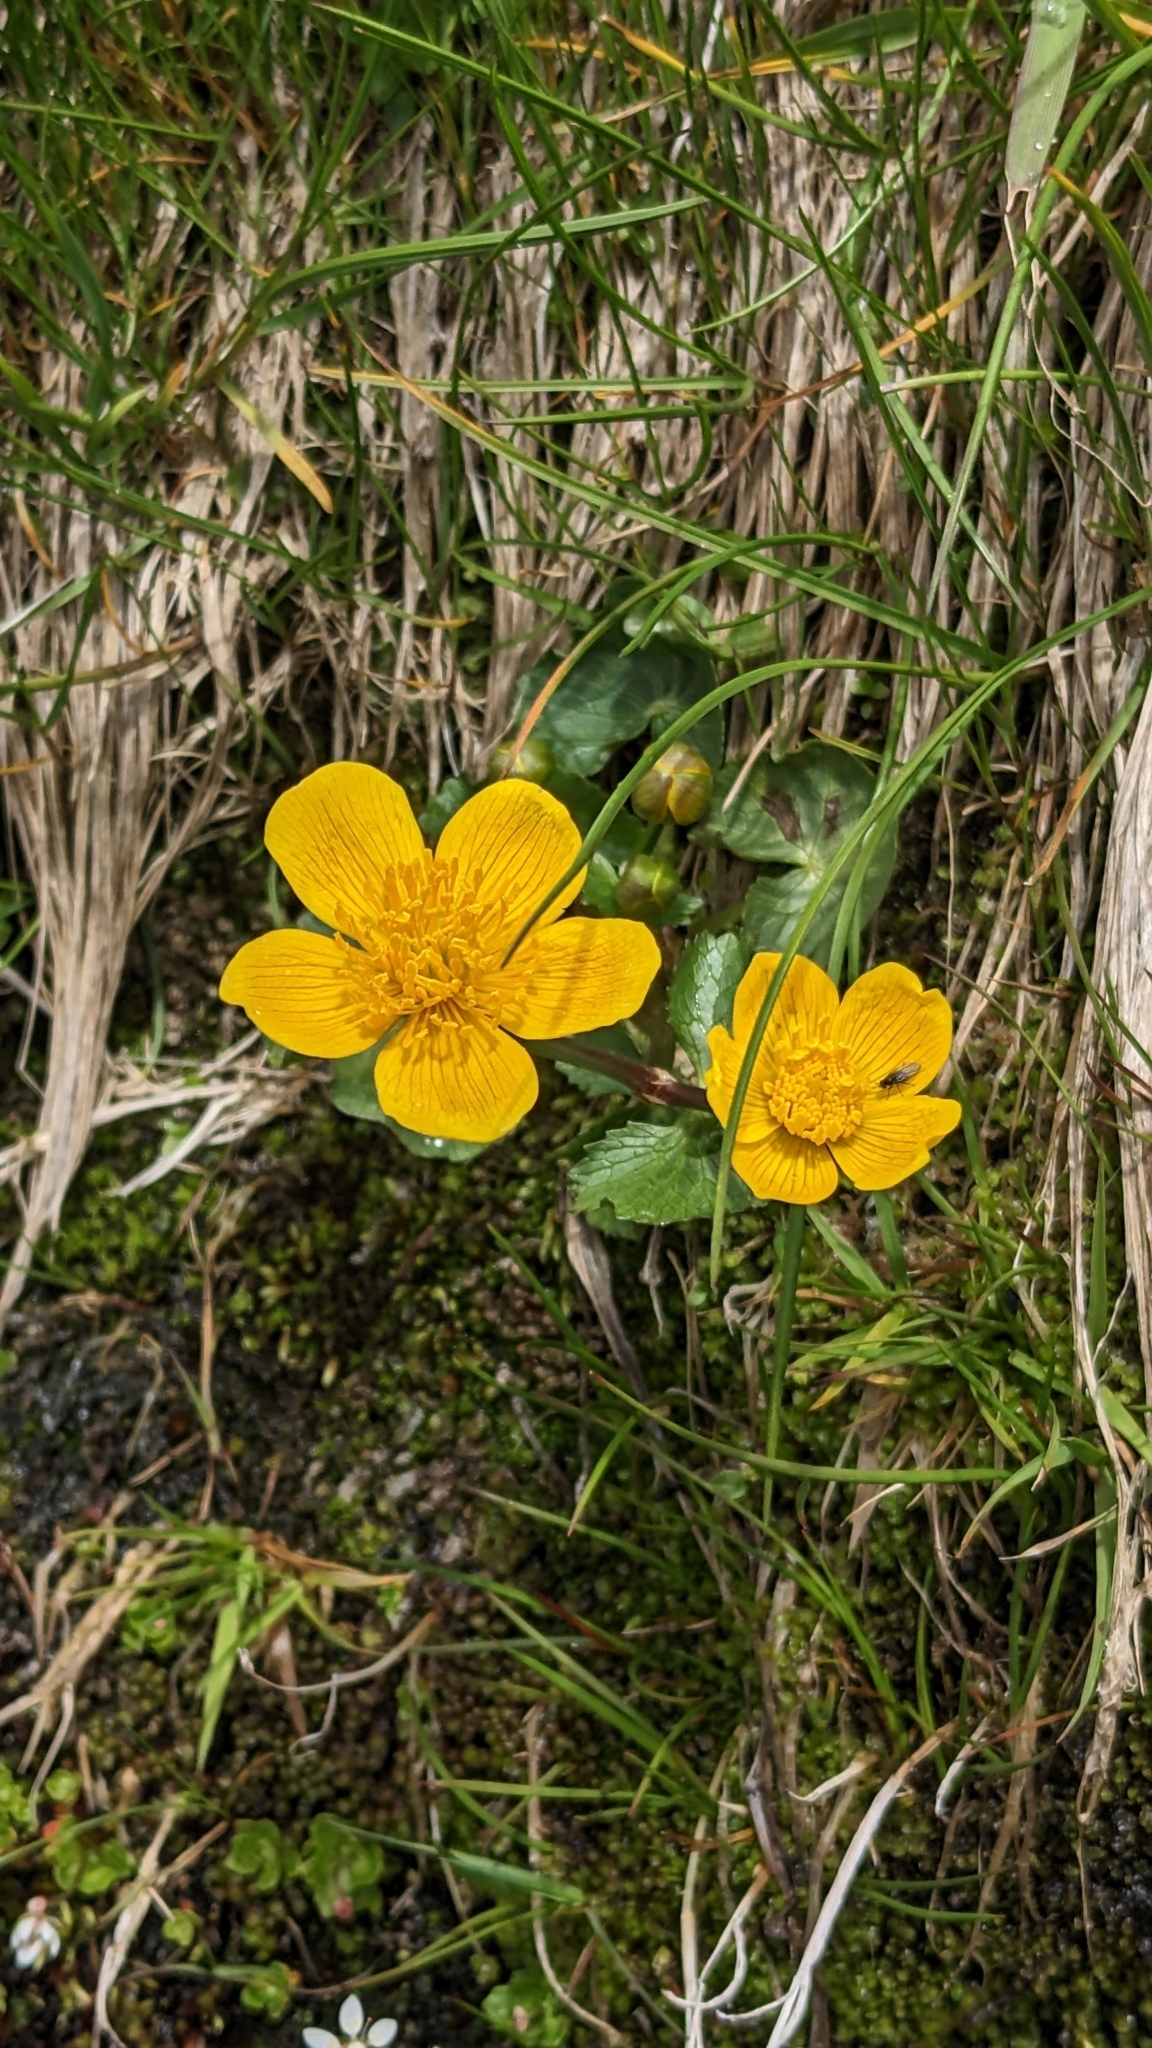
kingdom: Plantae
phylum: Tracheophyta
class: Magnoliopsida
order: Ranunculales
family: Ranunculaceae
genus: Caltha
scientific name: Caltha palustris
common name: Marsh marigold
